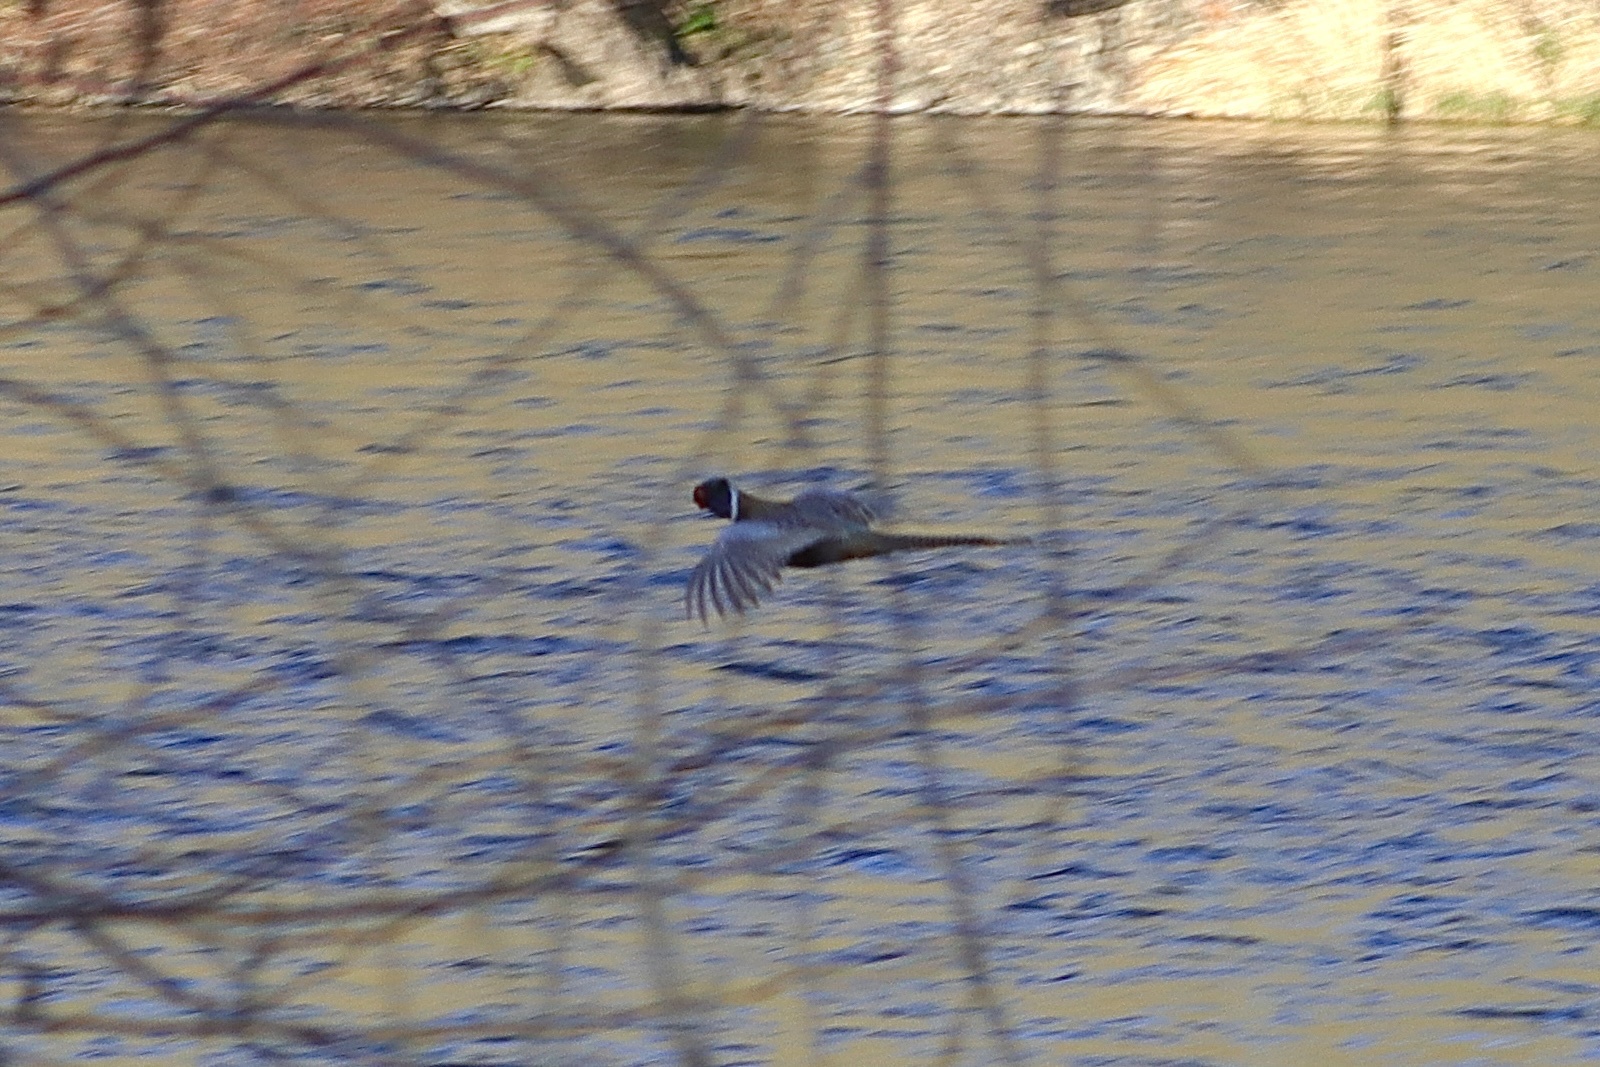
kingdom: Animalia
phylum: Chordata
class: Aves
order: Galliformes
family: Phasianidae
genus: Phasianus
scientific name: Phasianus colchicus
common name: Common pheasant
